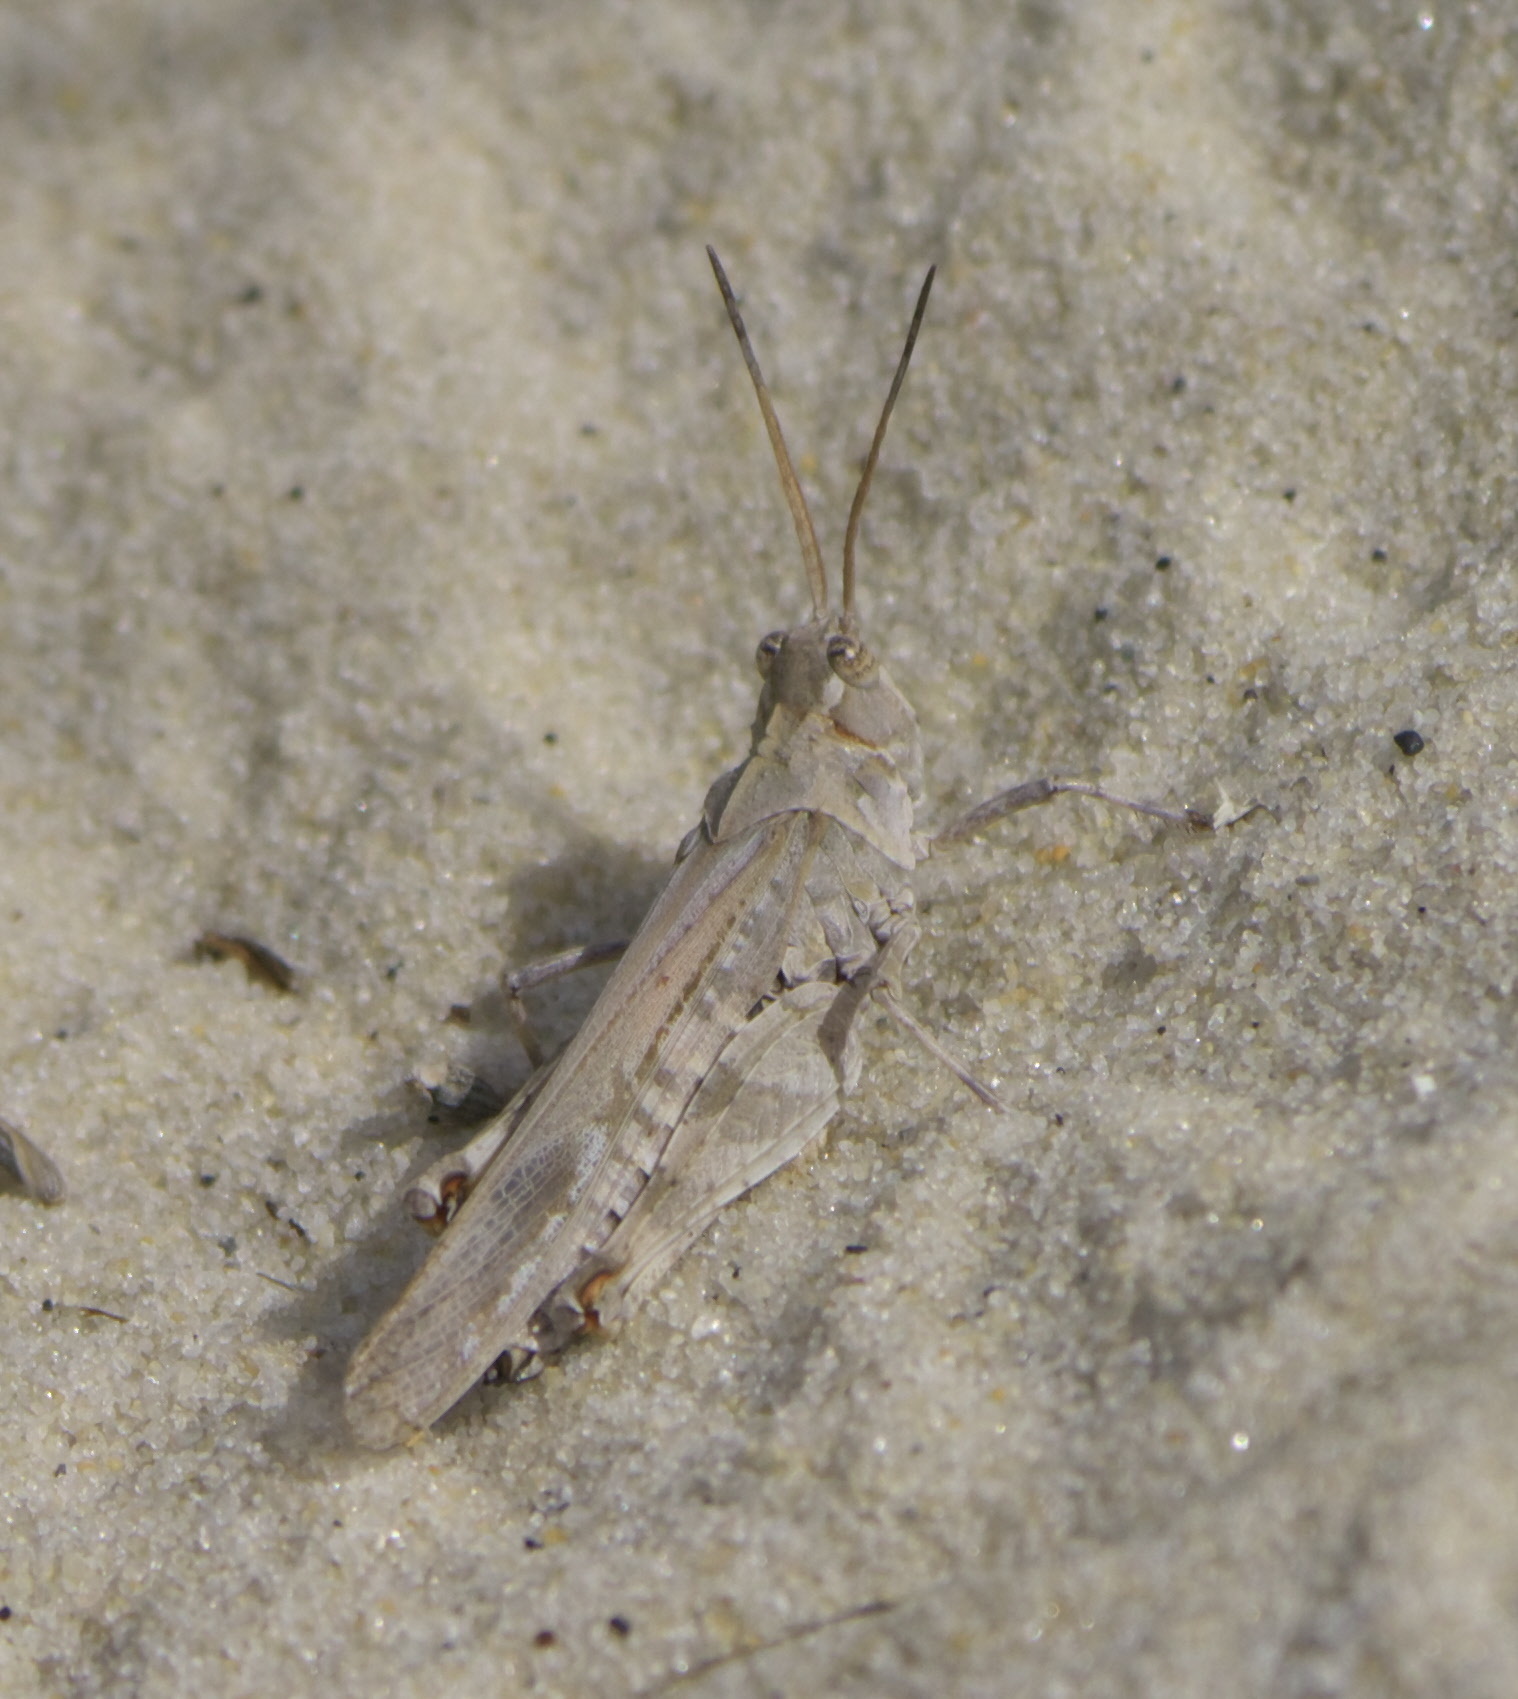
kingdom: Animalia
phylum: Arthropoda
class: Insecta
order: Orthoptera
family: Acrididae
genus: Psinidia
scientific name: Psinidia fenestralis
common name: Long-horned locust
